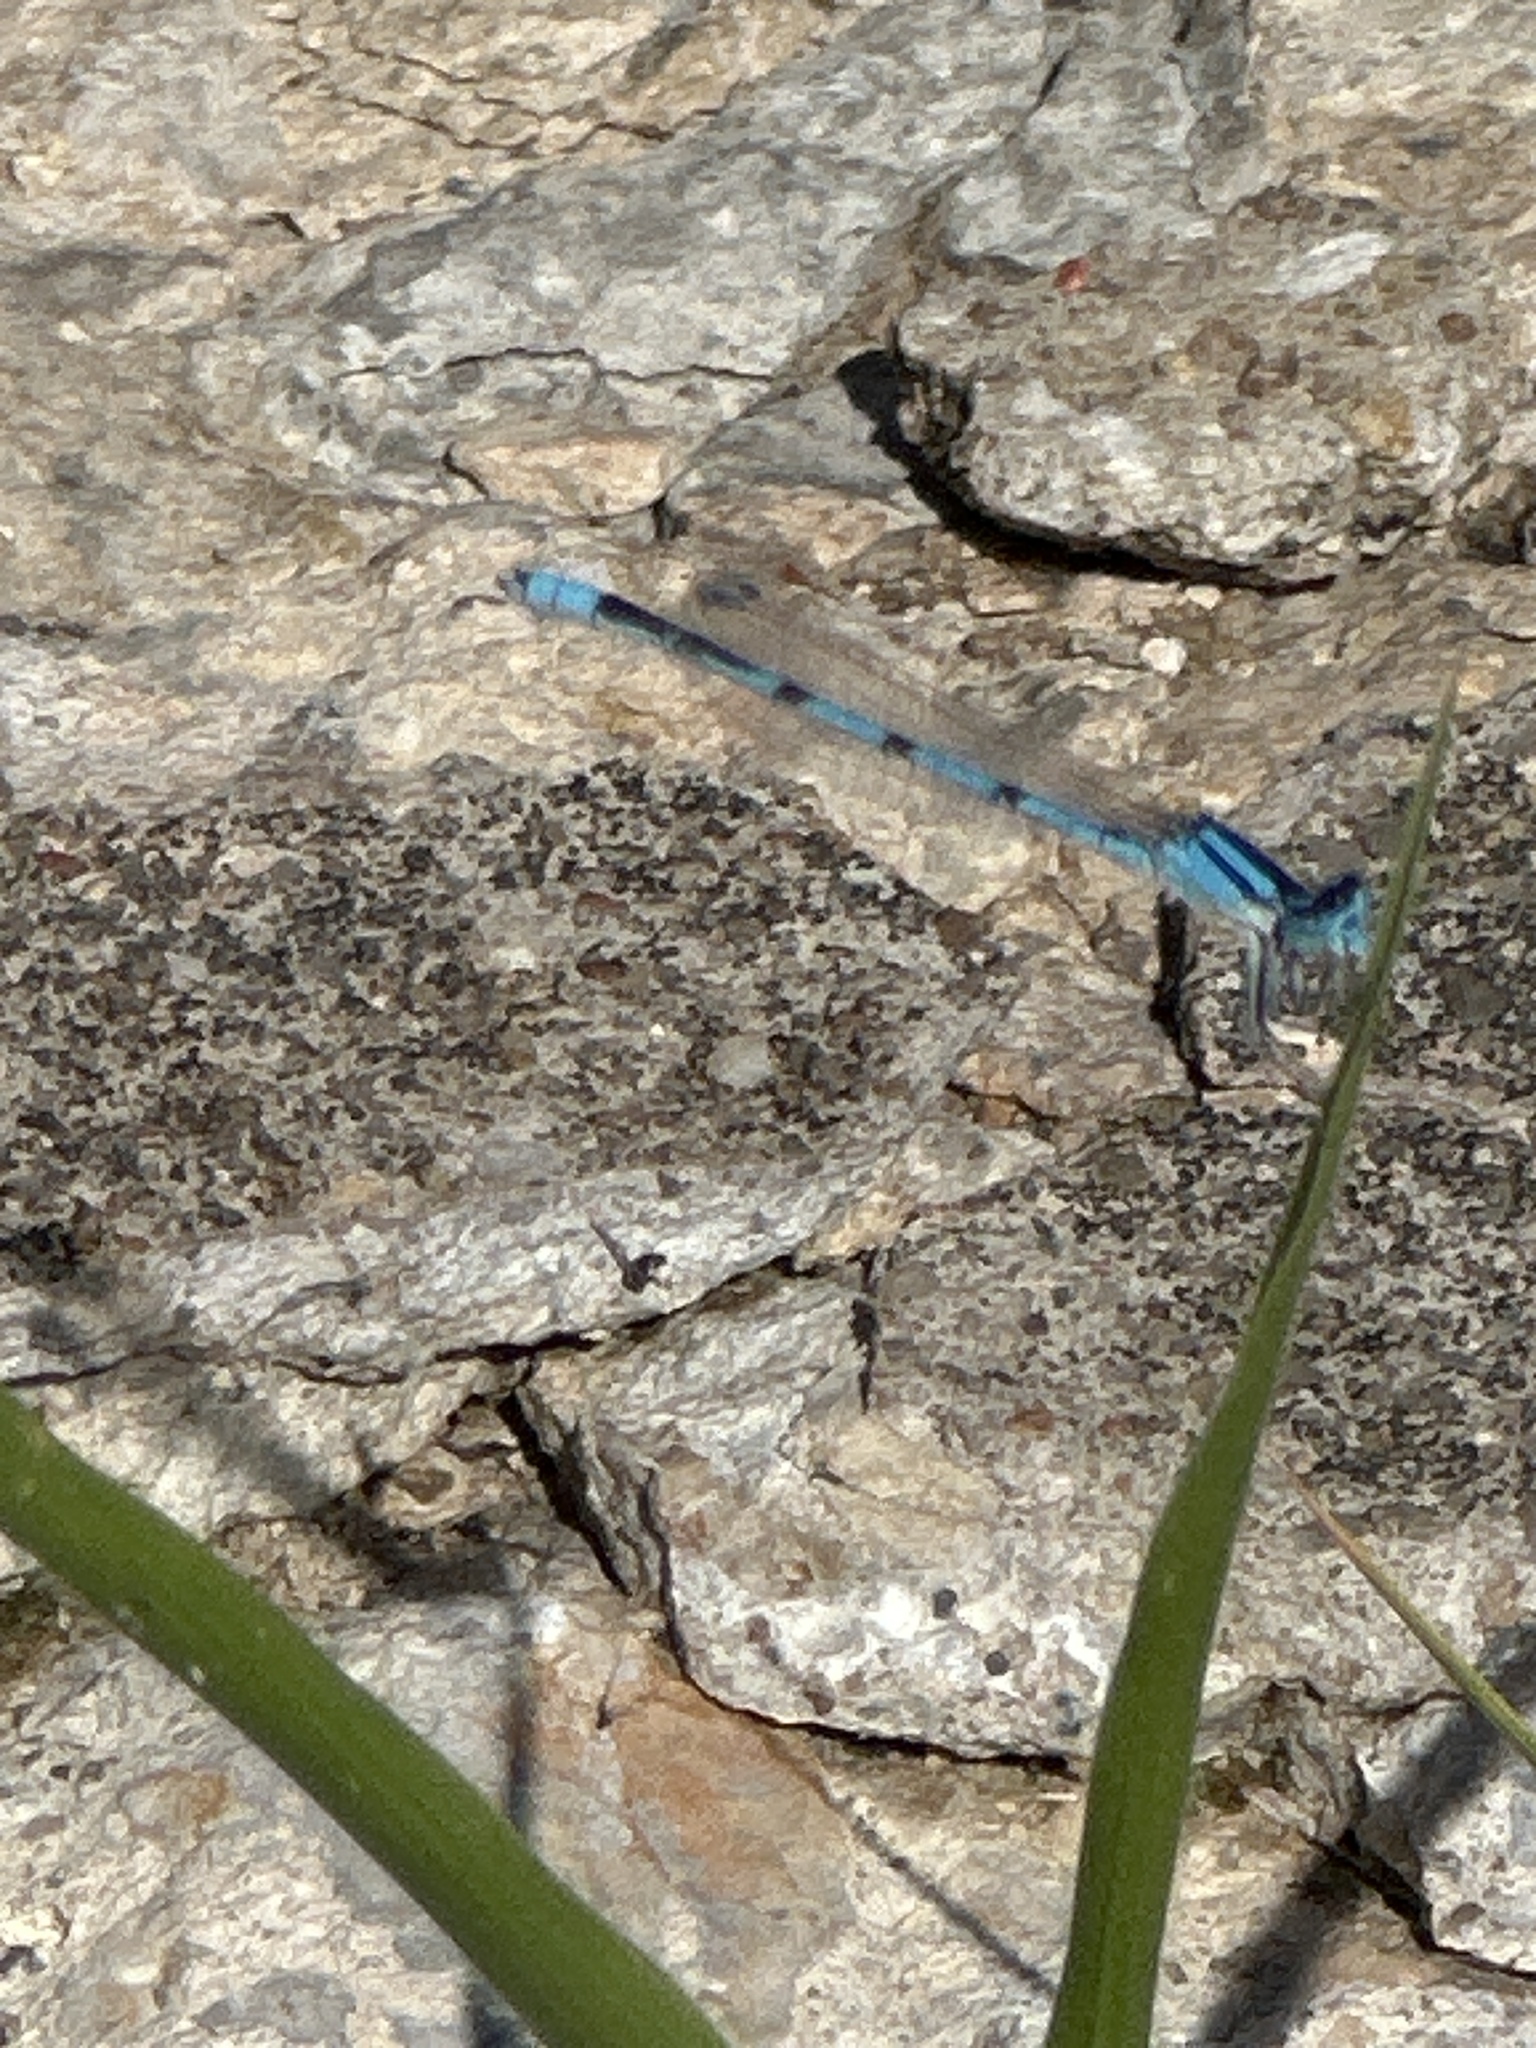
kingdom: Animalia
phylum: Arthropoda
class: Insecta
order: Odonata
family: Coenagrionidae
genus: Enallagma
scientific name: Enallagma civile
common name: Damselfly
